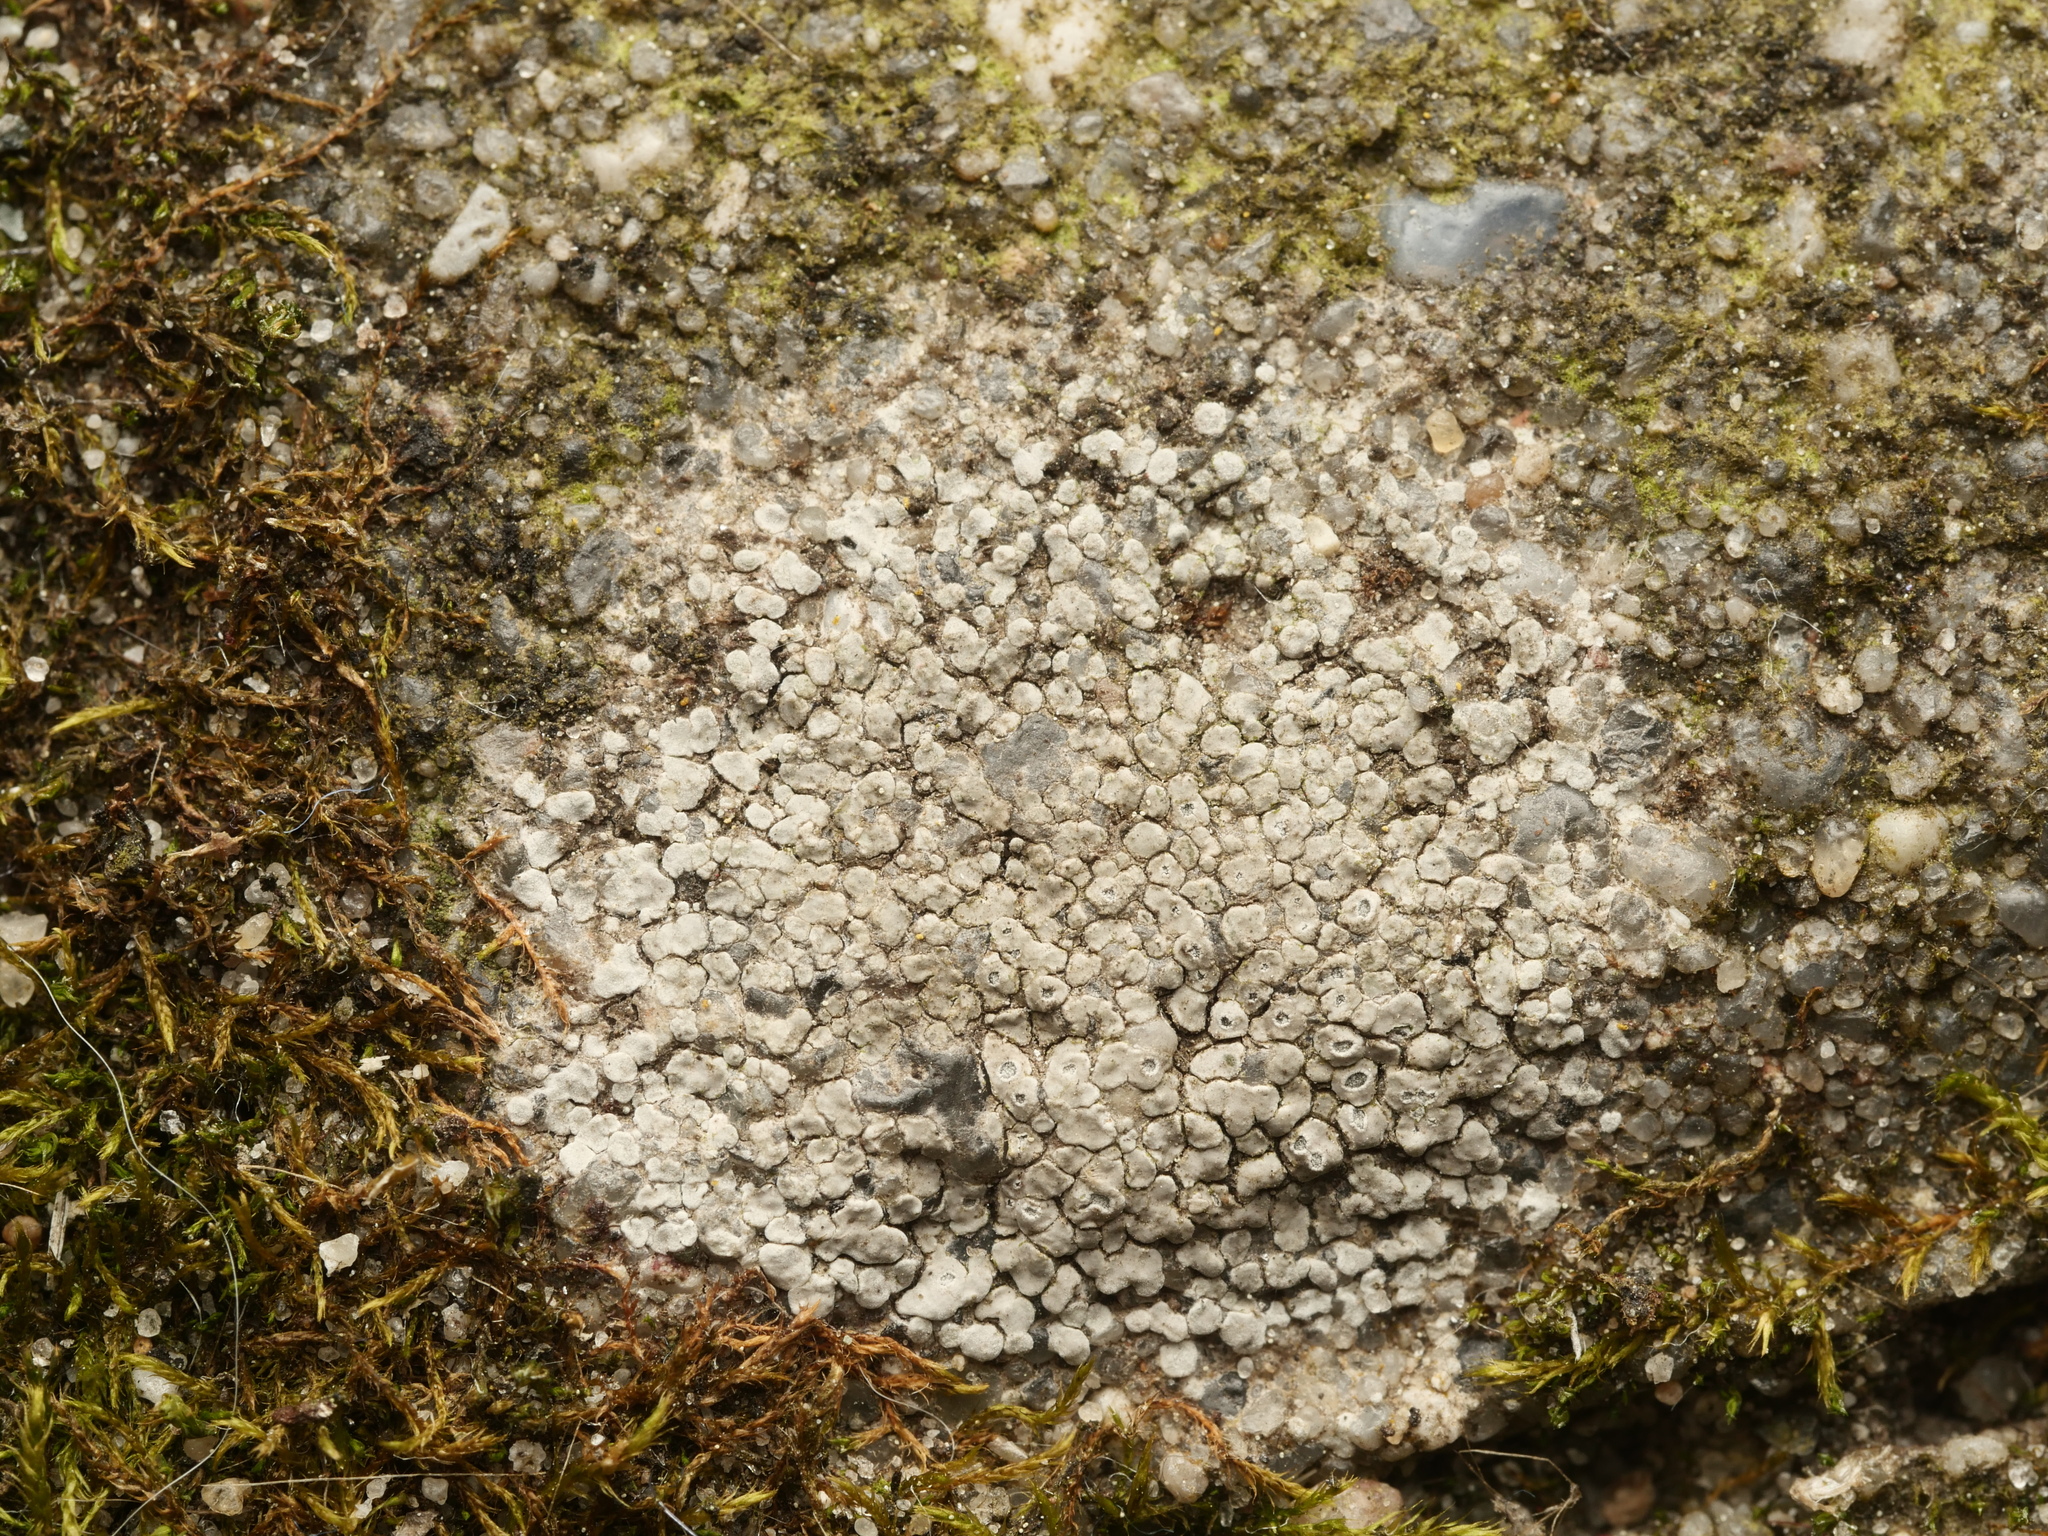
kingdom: Fungi
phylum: Ascomycota
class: Lecanoromycetes
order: Pertusariales
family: Megasporaceae
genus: Circinaria
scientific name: Circinaria contorta
